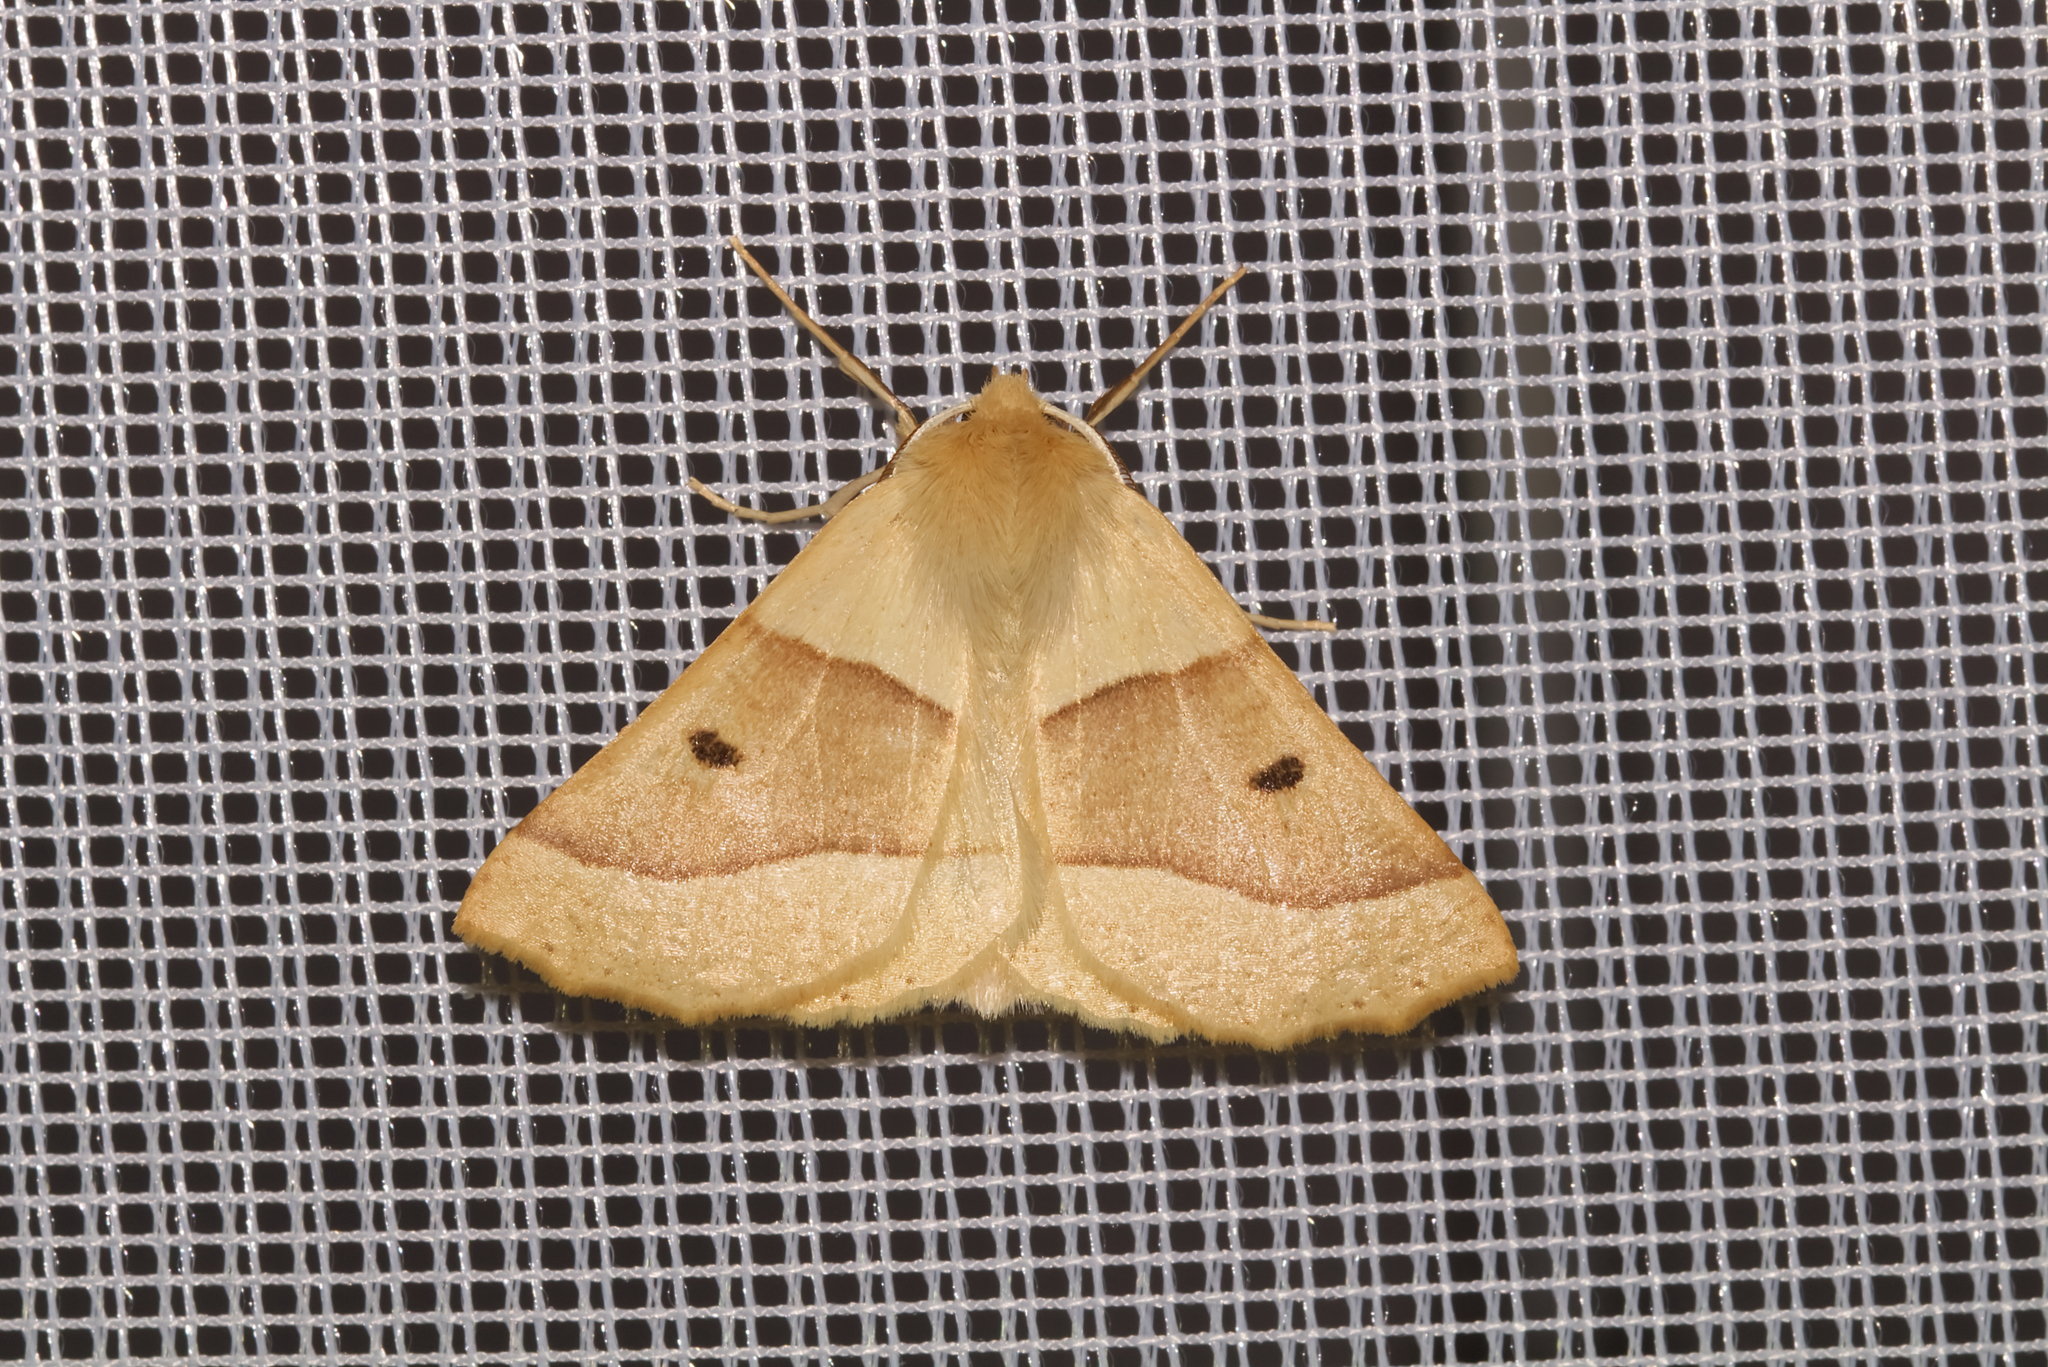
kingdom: Animalia
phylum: Arthropoda
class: Insecta
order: Lepidoptera
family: Geometridae
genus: Crocallis
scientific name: Crocallis elinguaria
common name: Scalloped oak
